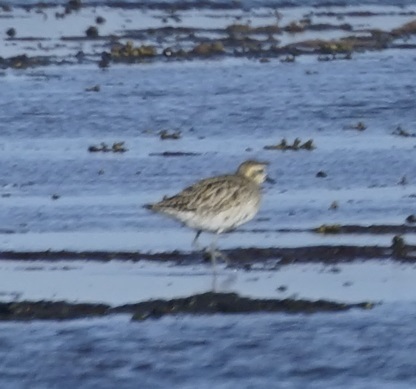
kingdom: Animalia
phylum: Chordata
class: Aves
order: Charadriiformes
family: Charadriidae
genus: Pluvialis
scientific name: Pluvialis fulva
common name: Pacific golden plover
